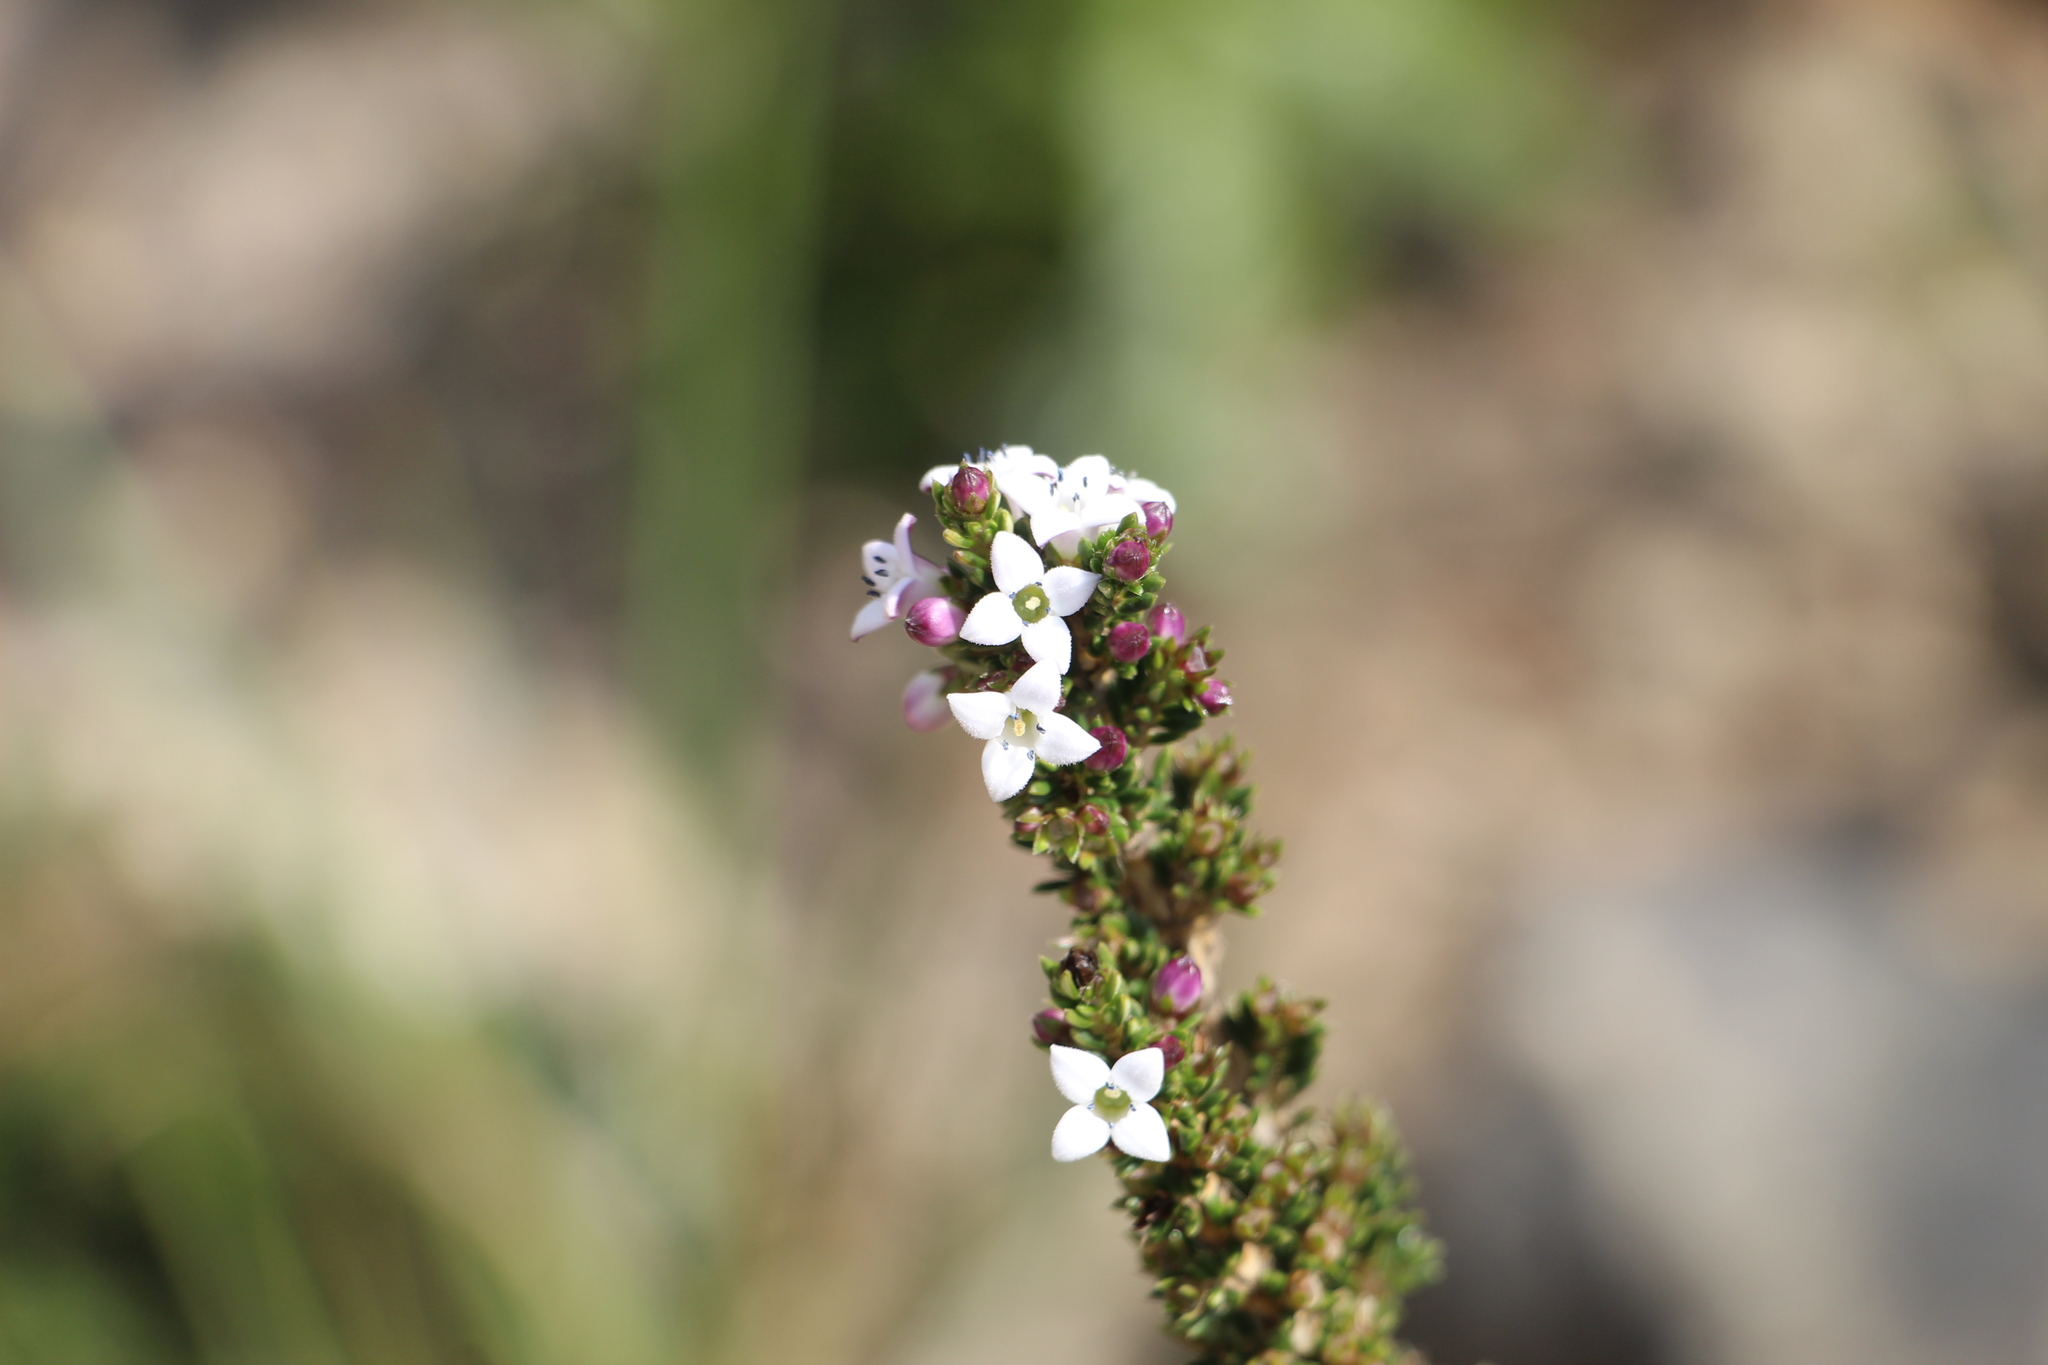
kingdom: Plantae
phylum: Tracheophyta
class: Magnoliopsida
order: Gentianales
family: Rubiaceae
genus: Arcytophyllum
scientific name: Arcytophyllum nitidum
